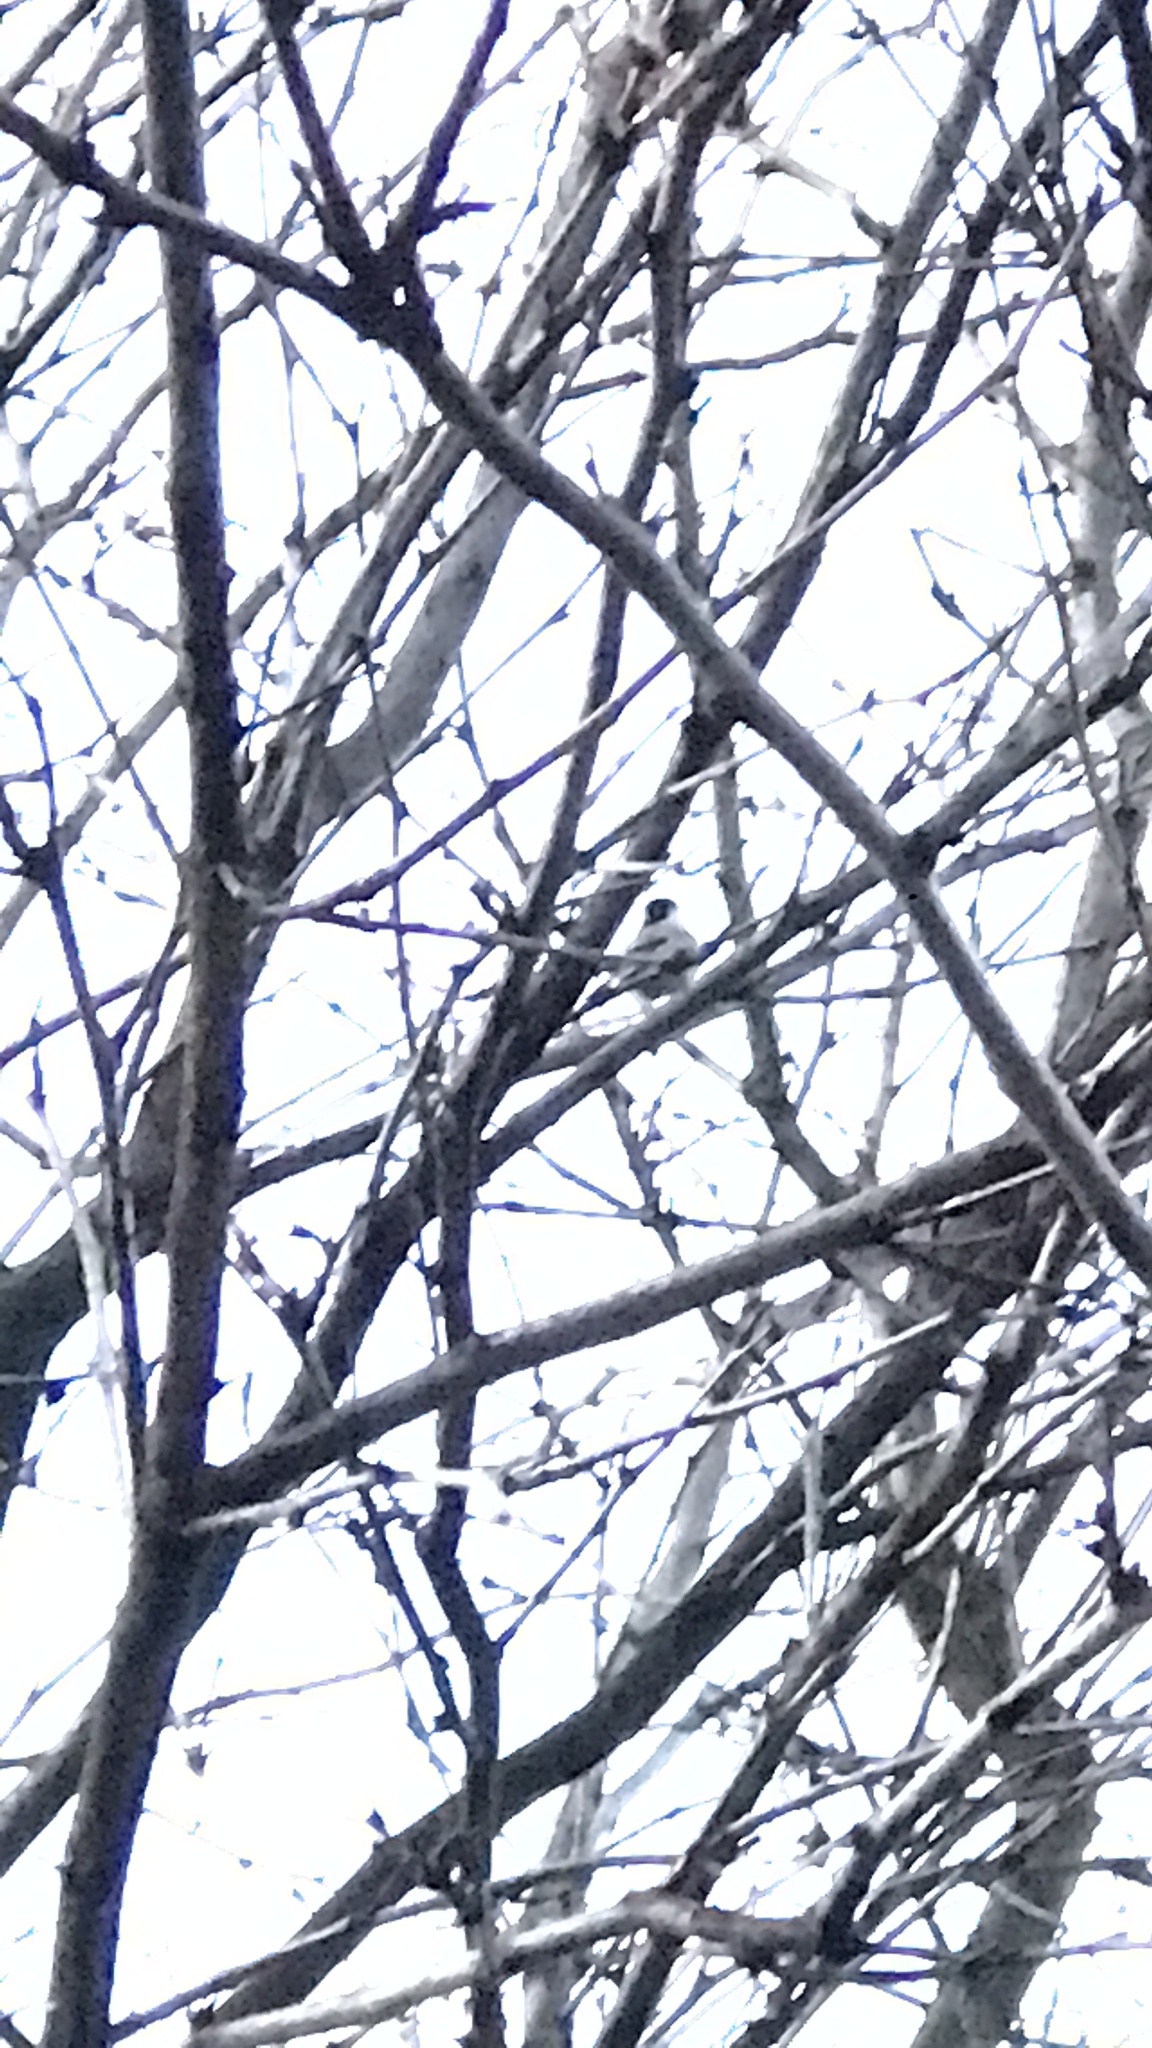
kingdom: Animalia
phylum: Chordata
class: Aves
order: Passeriformes
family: Paridae
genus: Poecile
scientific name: Poecile atricapillus
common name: Black-capped chickadee
